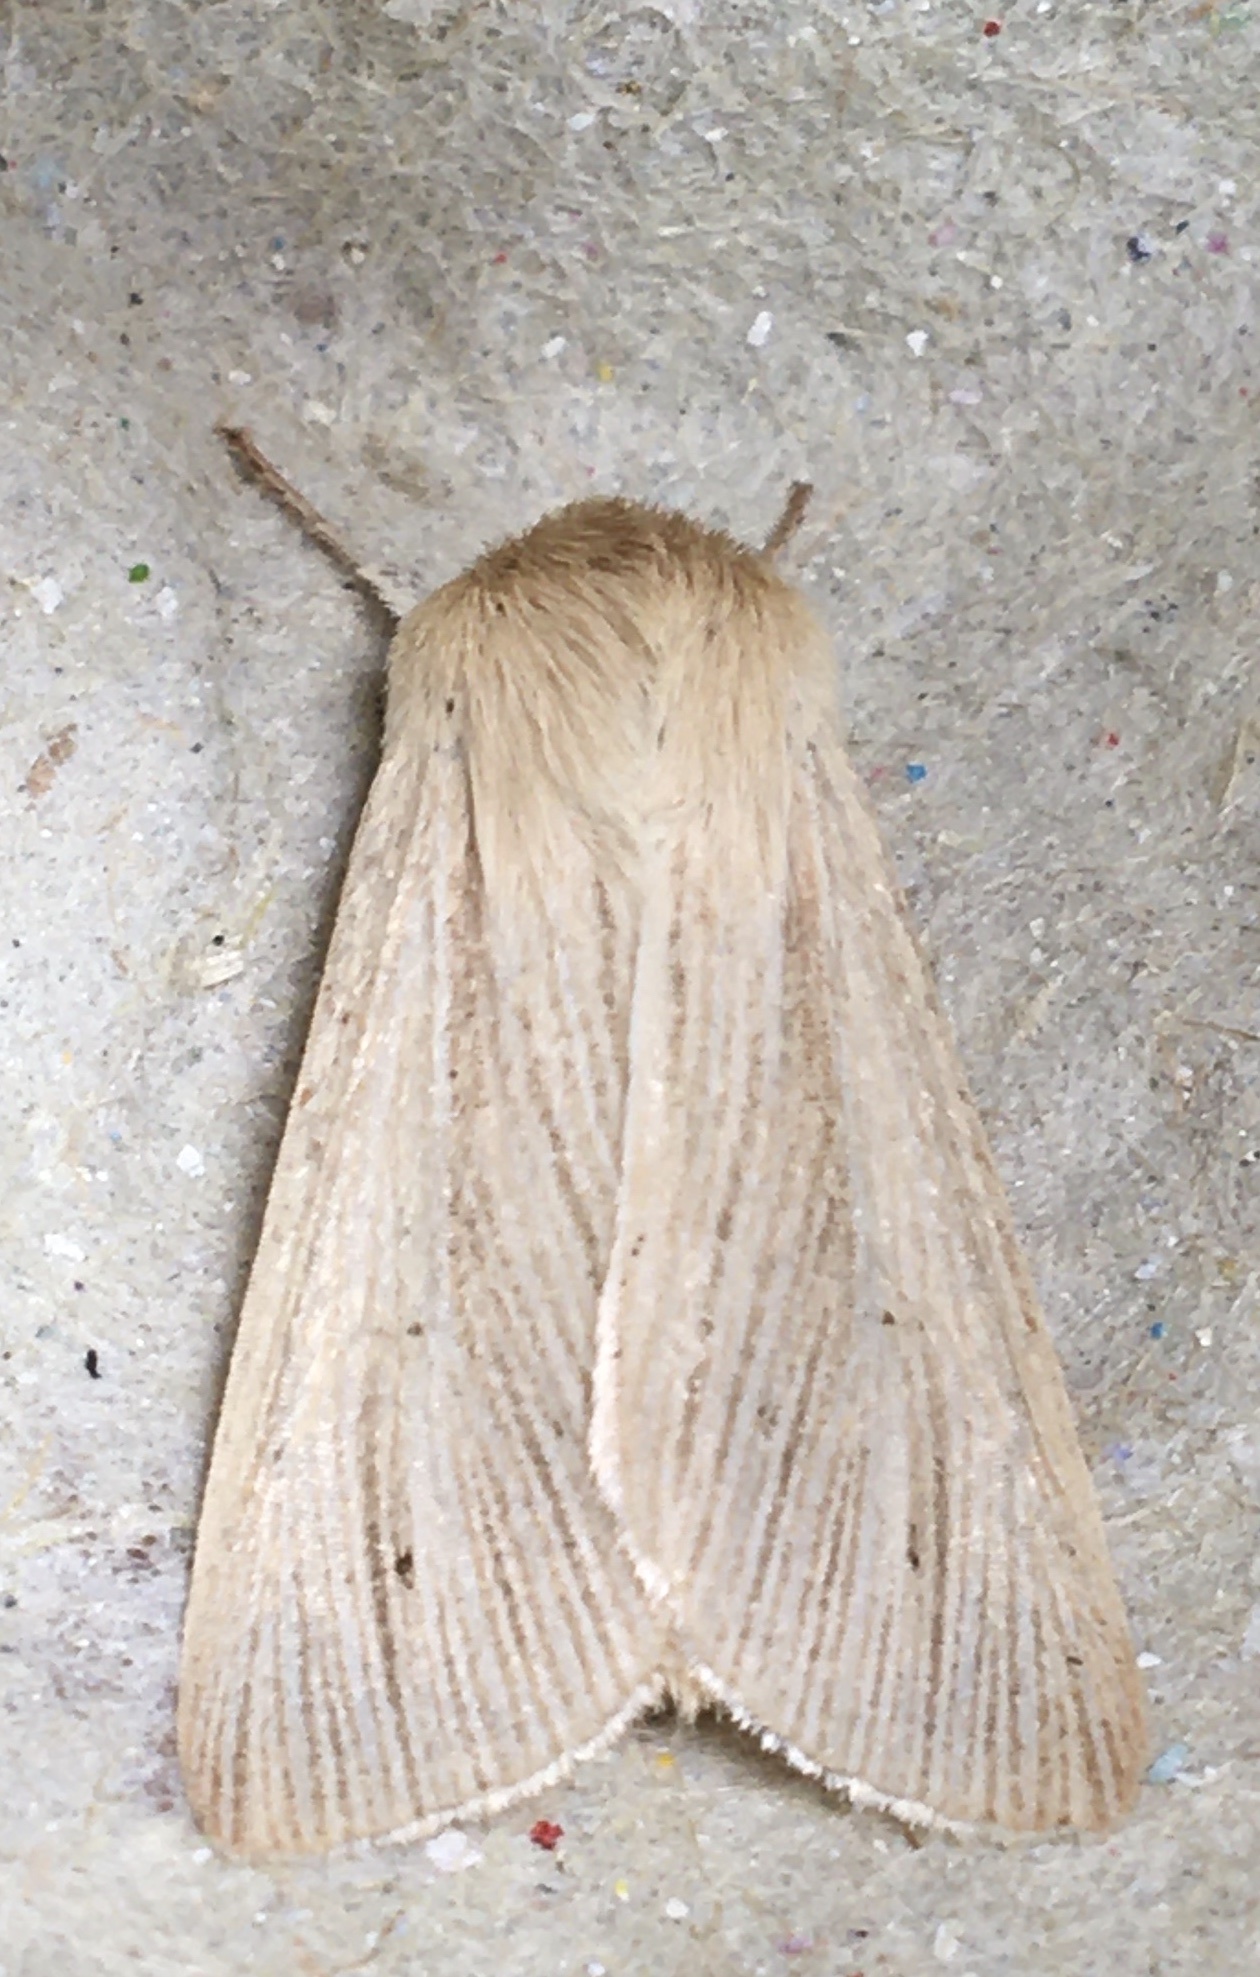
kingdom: Animalia
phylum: Arthropoda
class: Insecta
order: Lepidoptera
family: Noctuidae
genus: Mythimna
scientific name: Mythimna pallens
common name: Common wainscot
